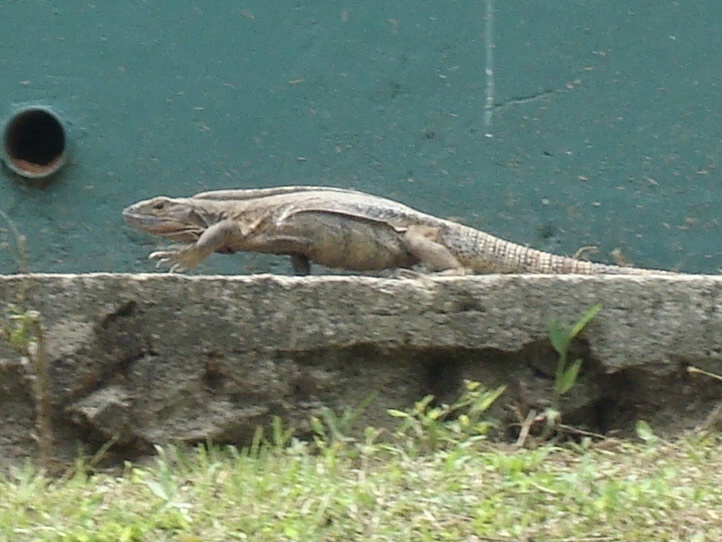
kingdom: Animalia
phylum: Chordata
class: Squamata
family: Iguanidae
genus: Ctenosaura
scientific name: Ctenosaura similis
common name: Black spiny-tailed iguana
